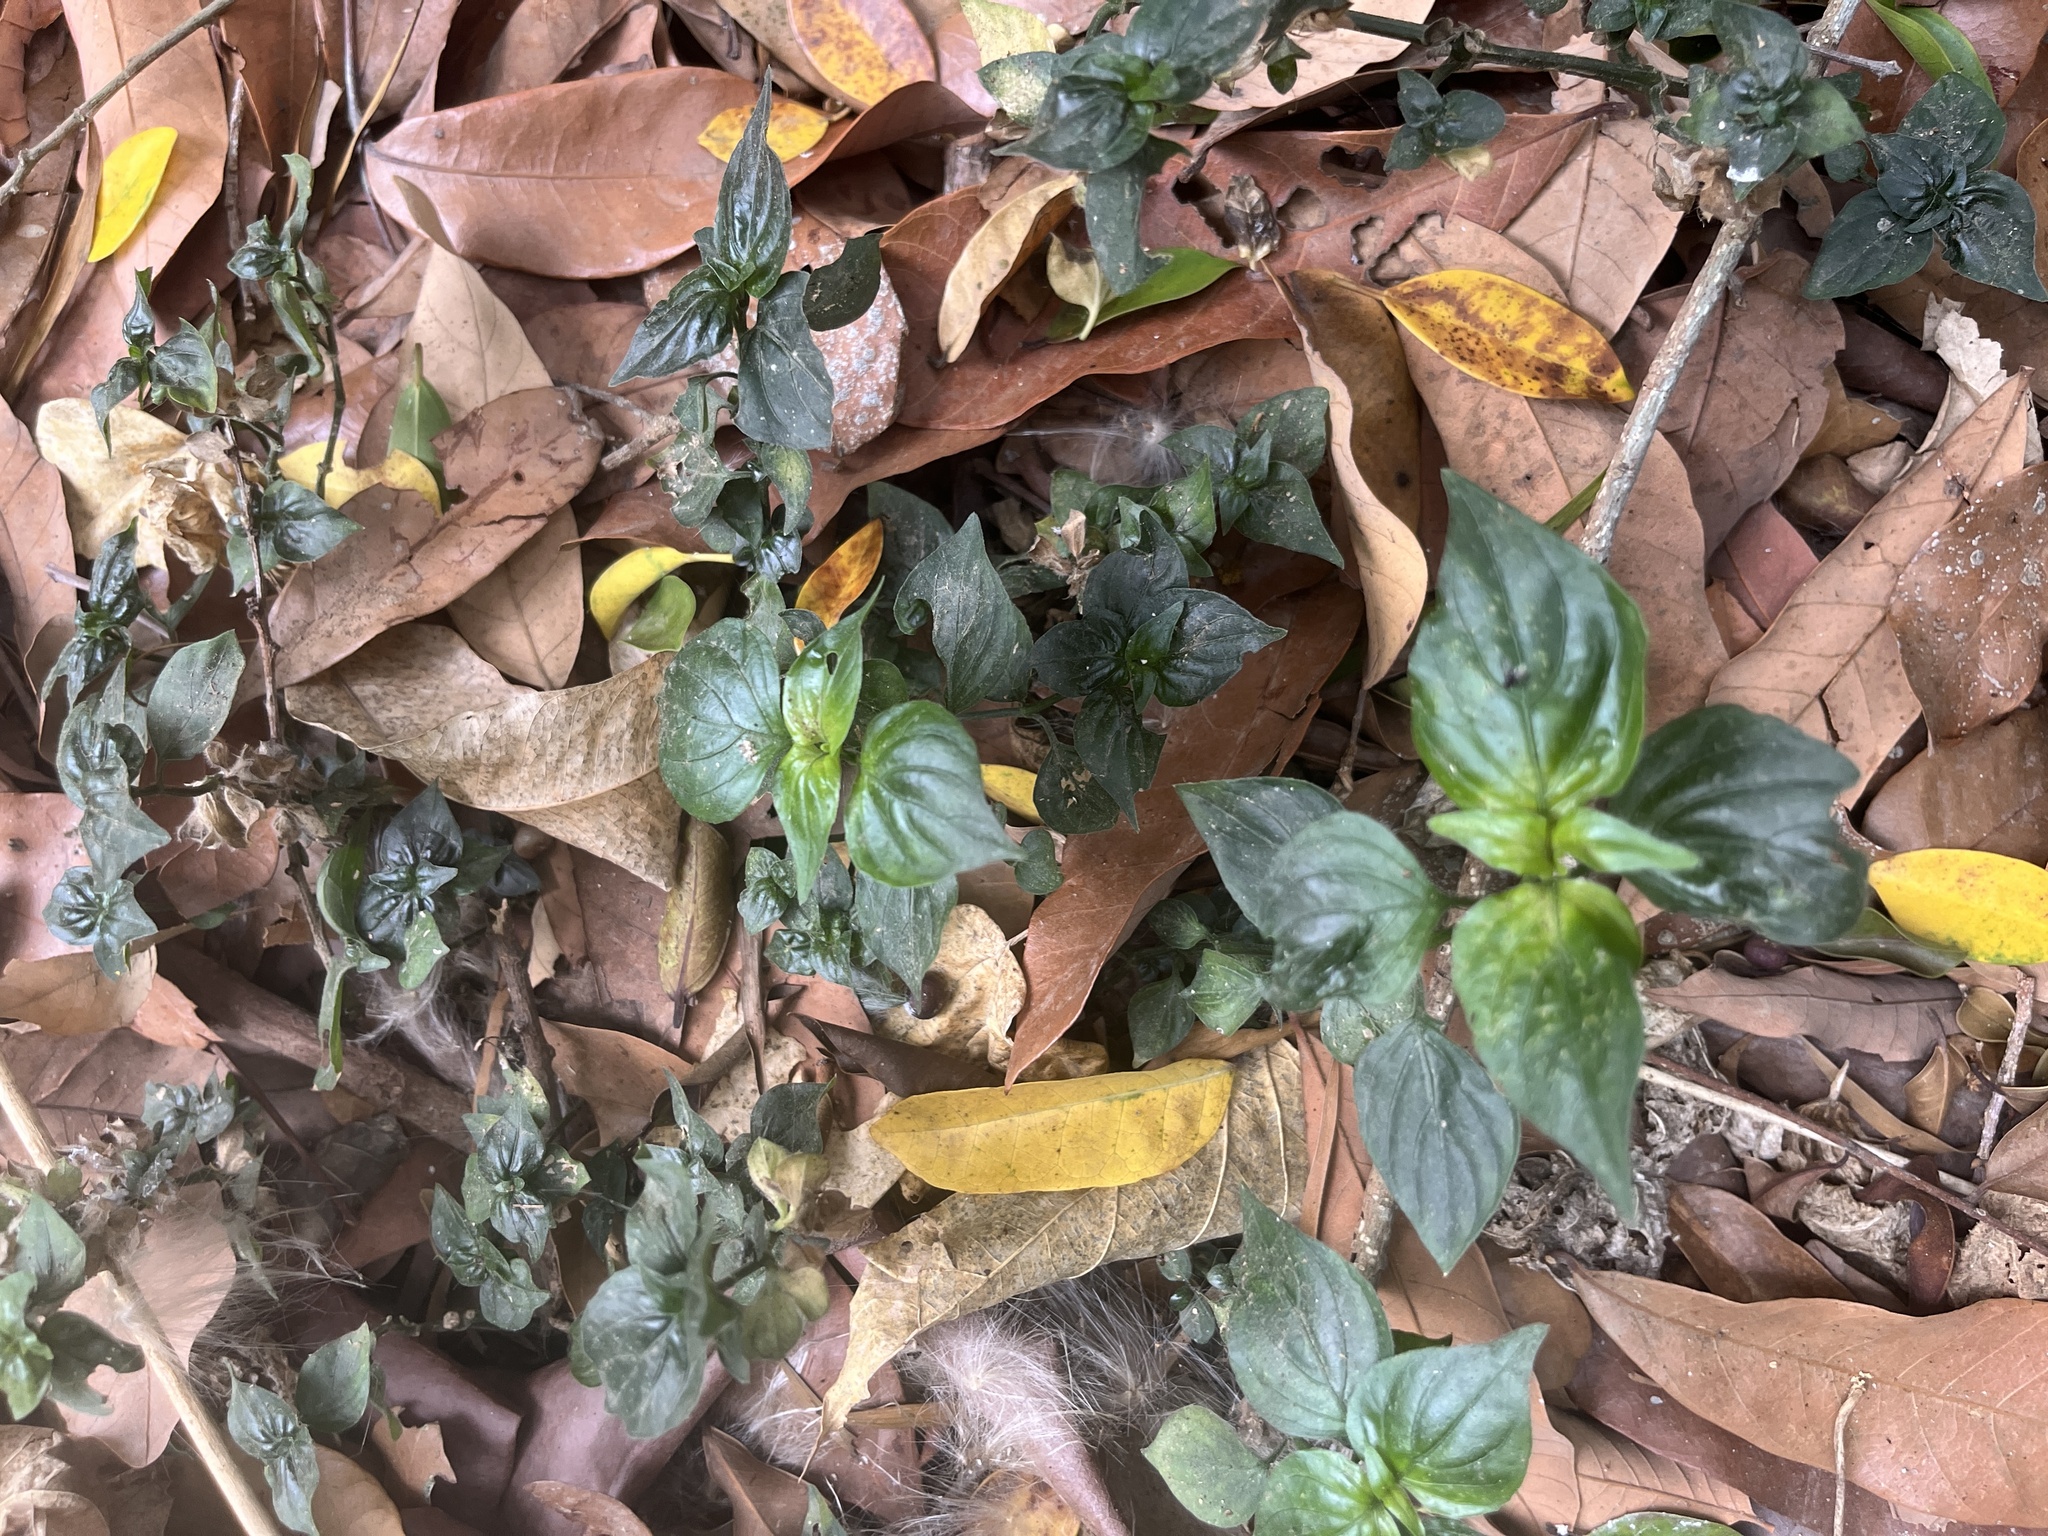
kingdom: Plantae
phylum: Tracheophyta
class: Magnoliopsida
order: Lamiales
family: Acanthaceae
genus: Dicliptera
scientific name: Dicliptera chinensis
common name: Chinese foldwing
